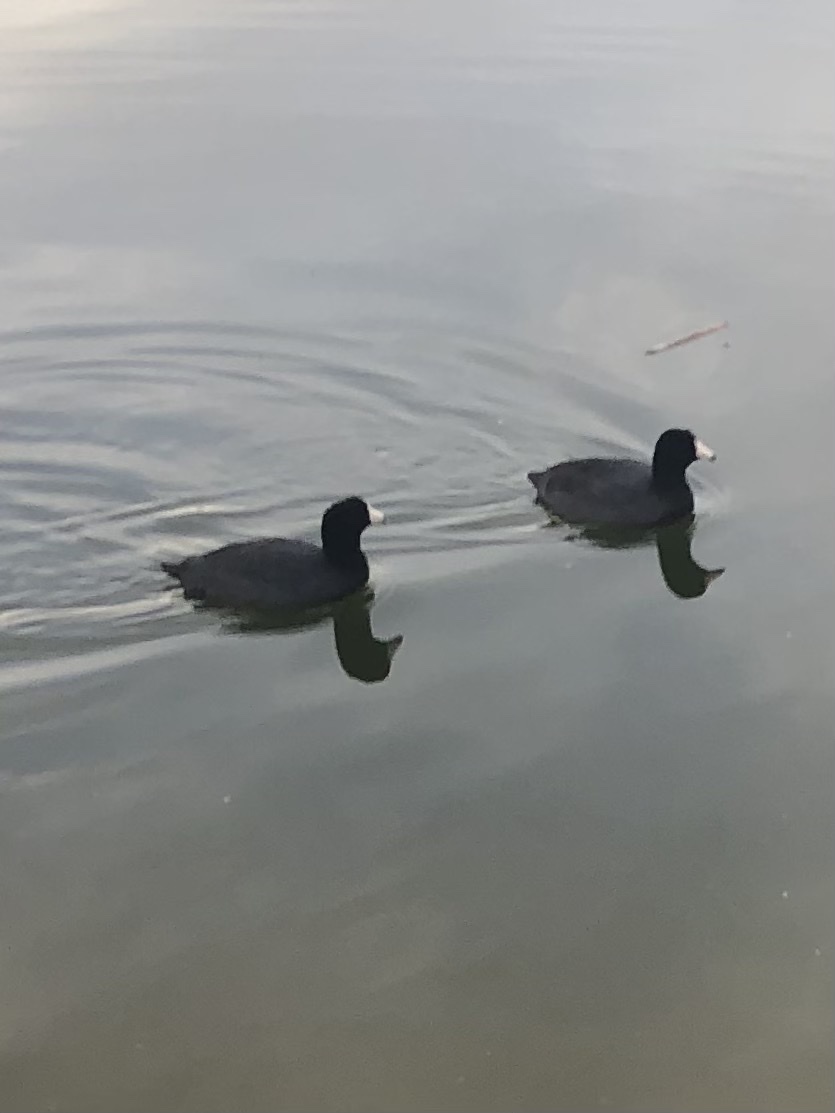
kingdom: Animalia
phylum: Chordata
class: Aves
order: Gruiformes
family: Rallidae
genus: Fulica
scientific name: Fulica americana
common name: American coot
